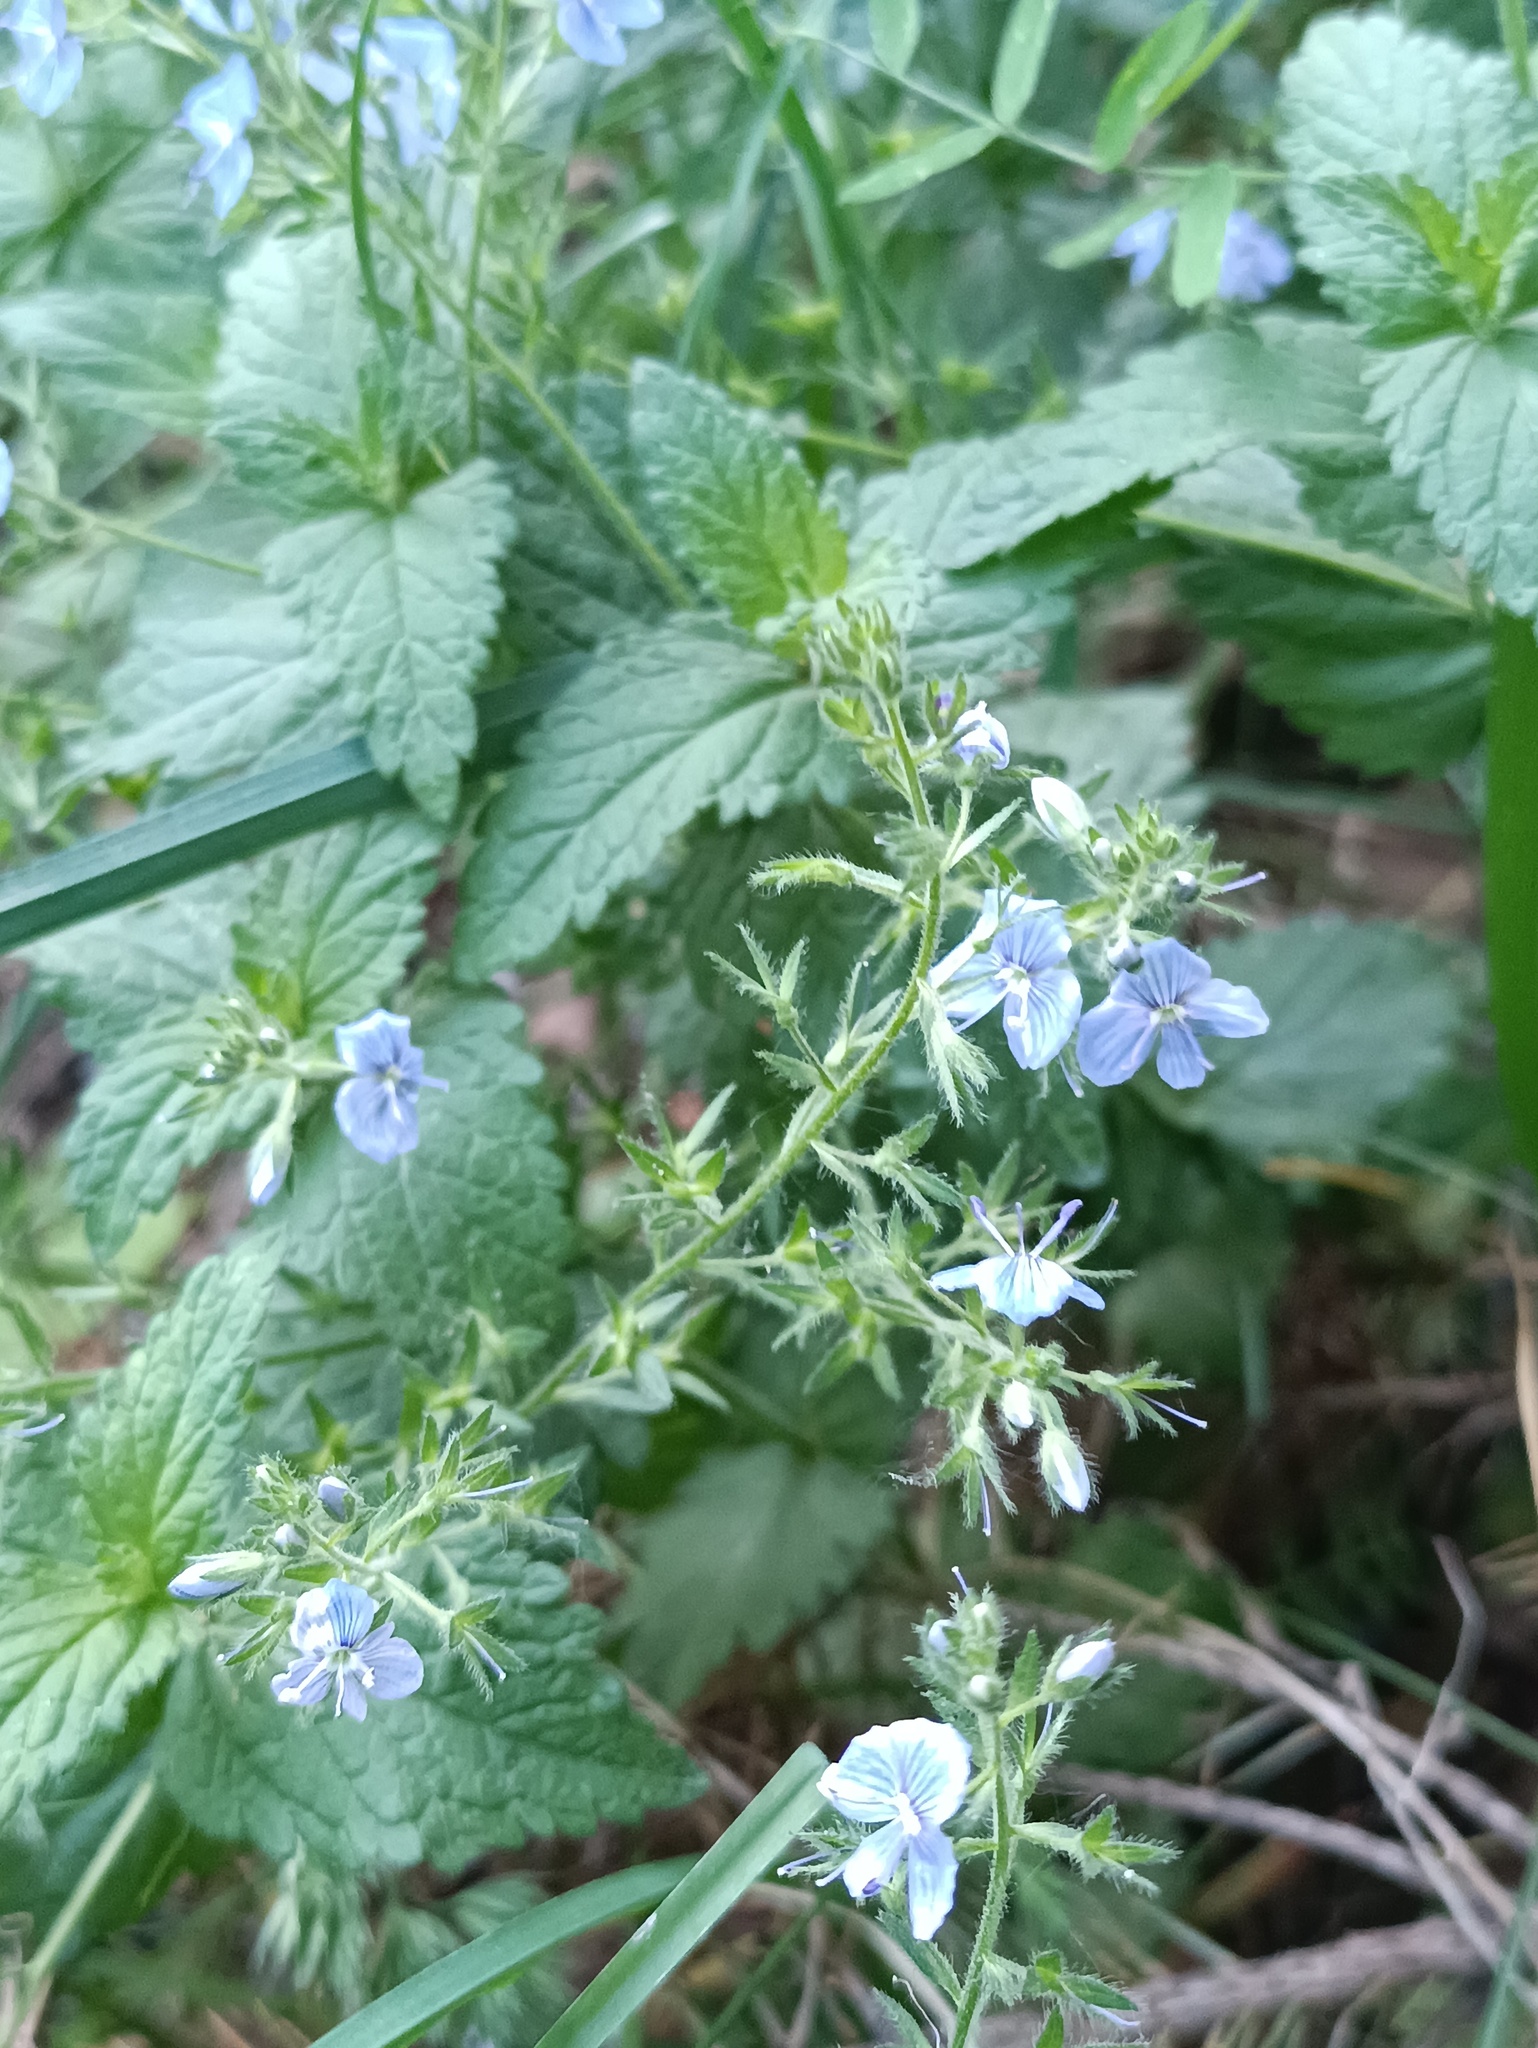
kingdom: Plantae
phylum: Tracheophyta
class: Magnoliopsida
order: Lamiales
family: Plantaginaceae
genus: Veronica
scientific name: Veronica chamaedrys
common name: Germander speedwell
